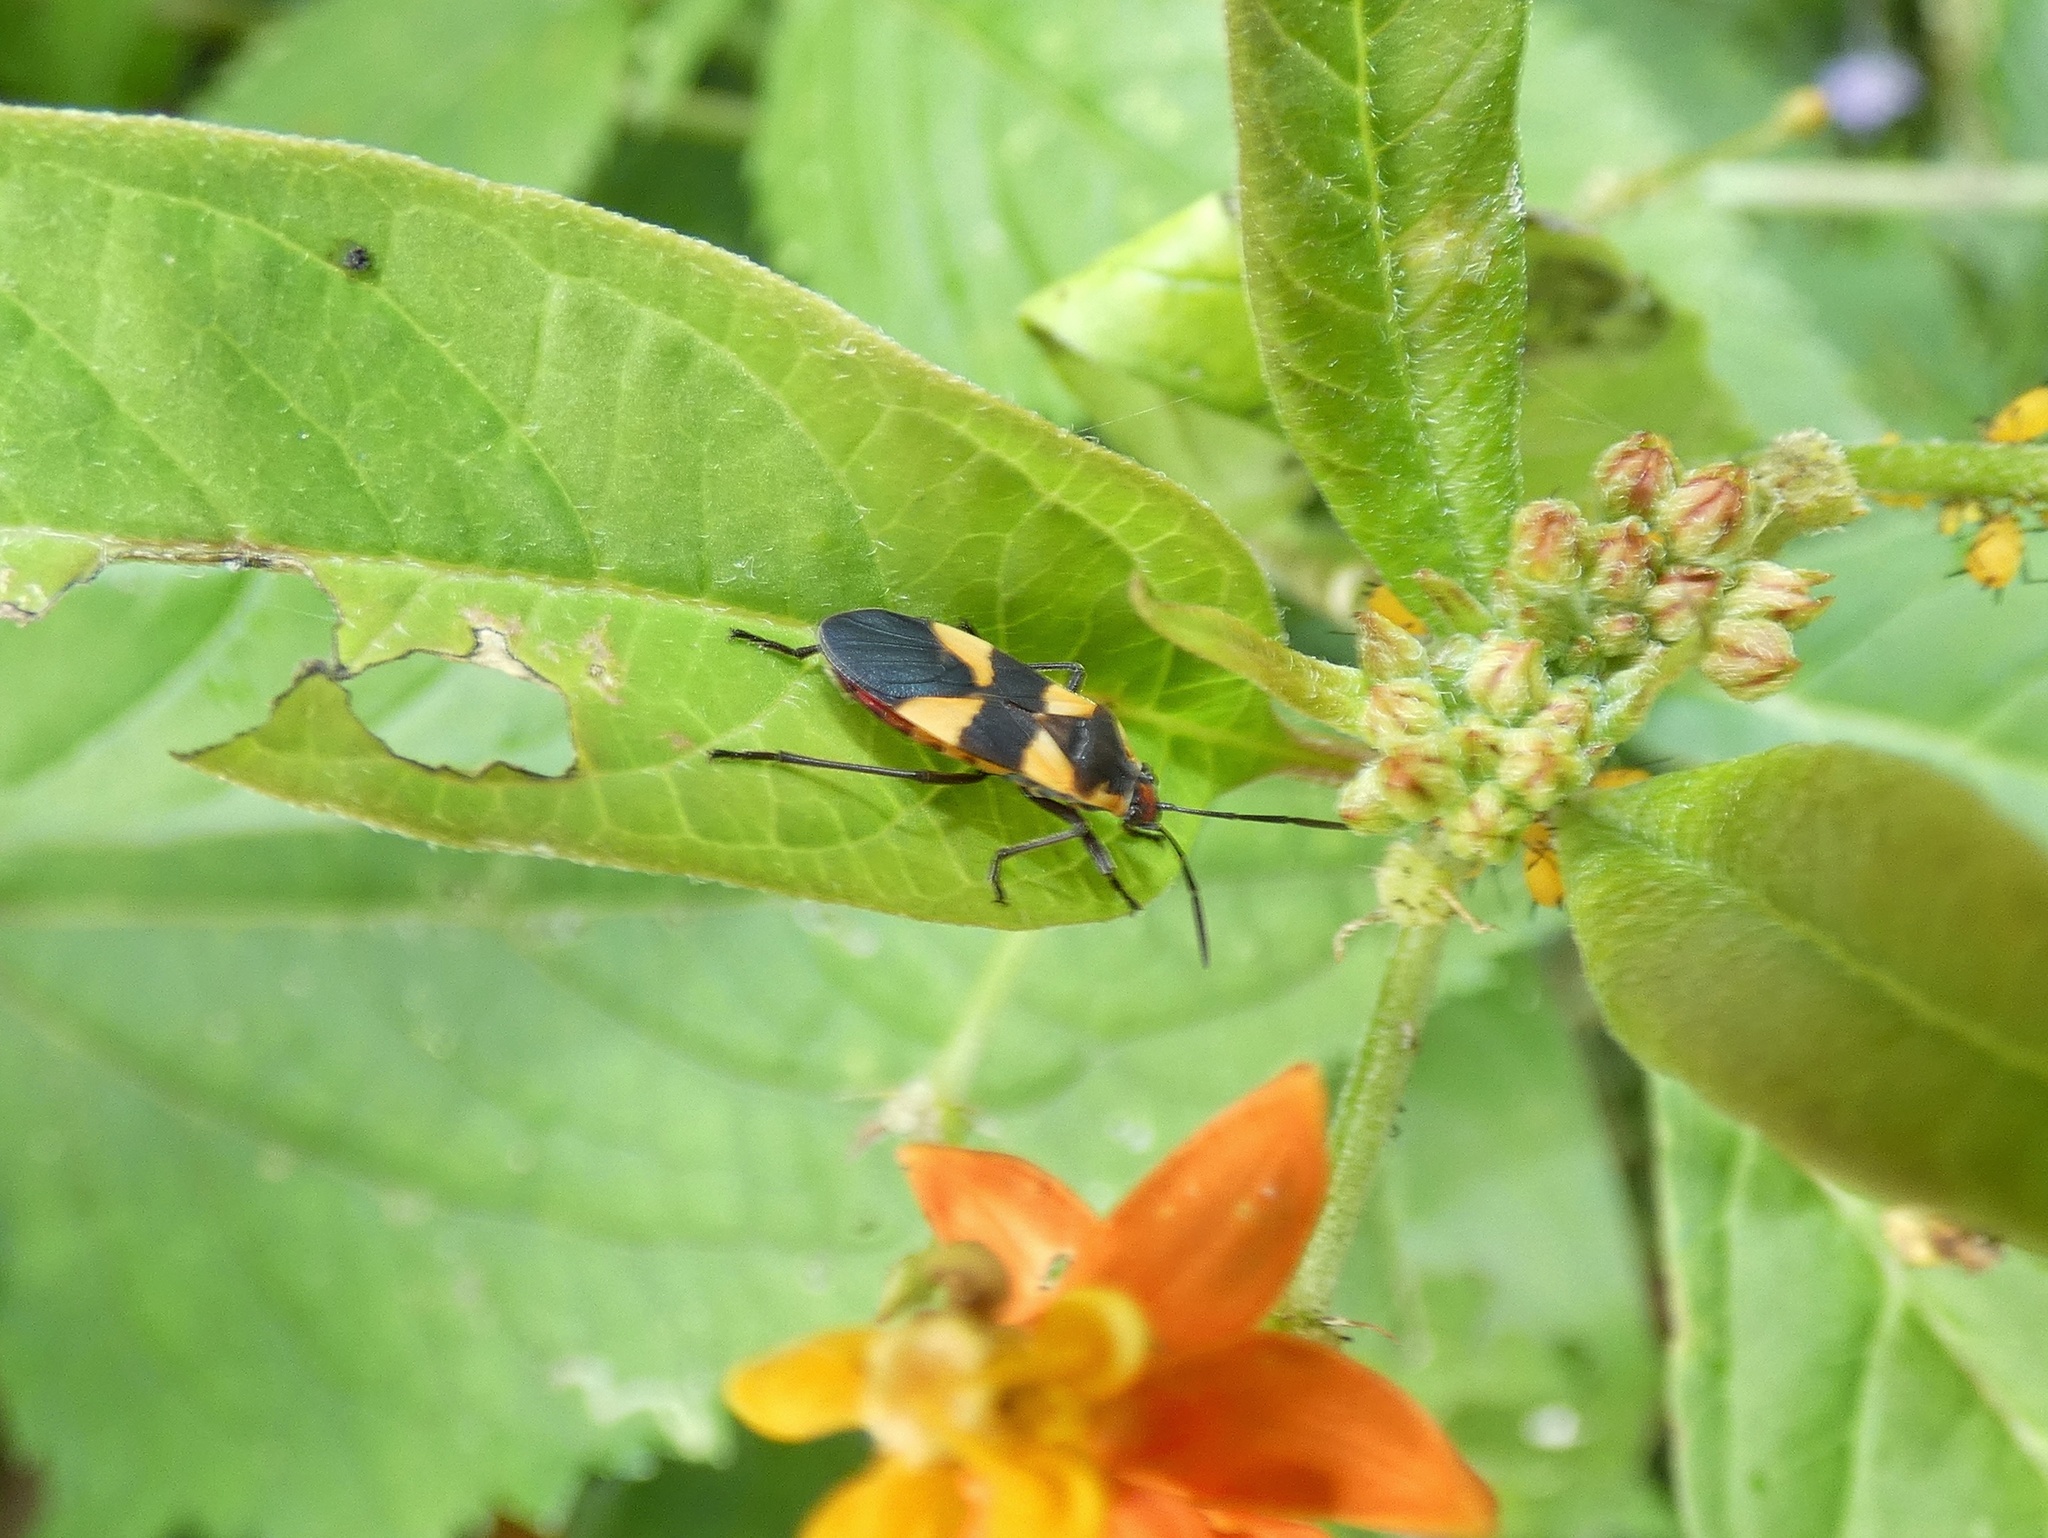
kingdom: Animalia
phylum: Arthropoda
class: Insecta
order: Hemiptera
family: Lygaeidae
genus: Oncopeltus
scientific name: Oncopeltus cingulifer
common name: Lygaeid bug
